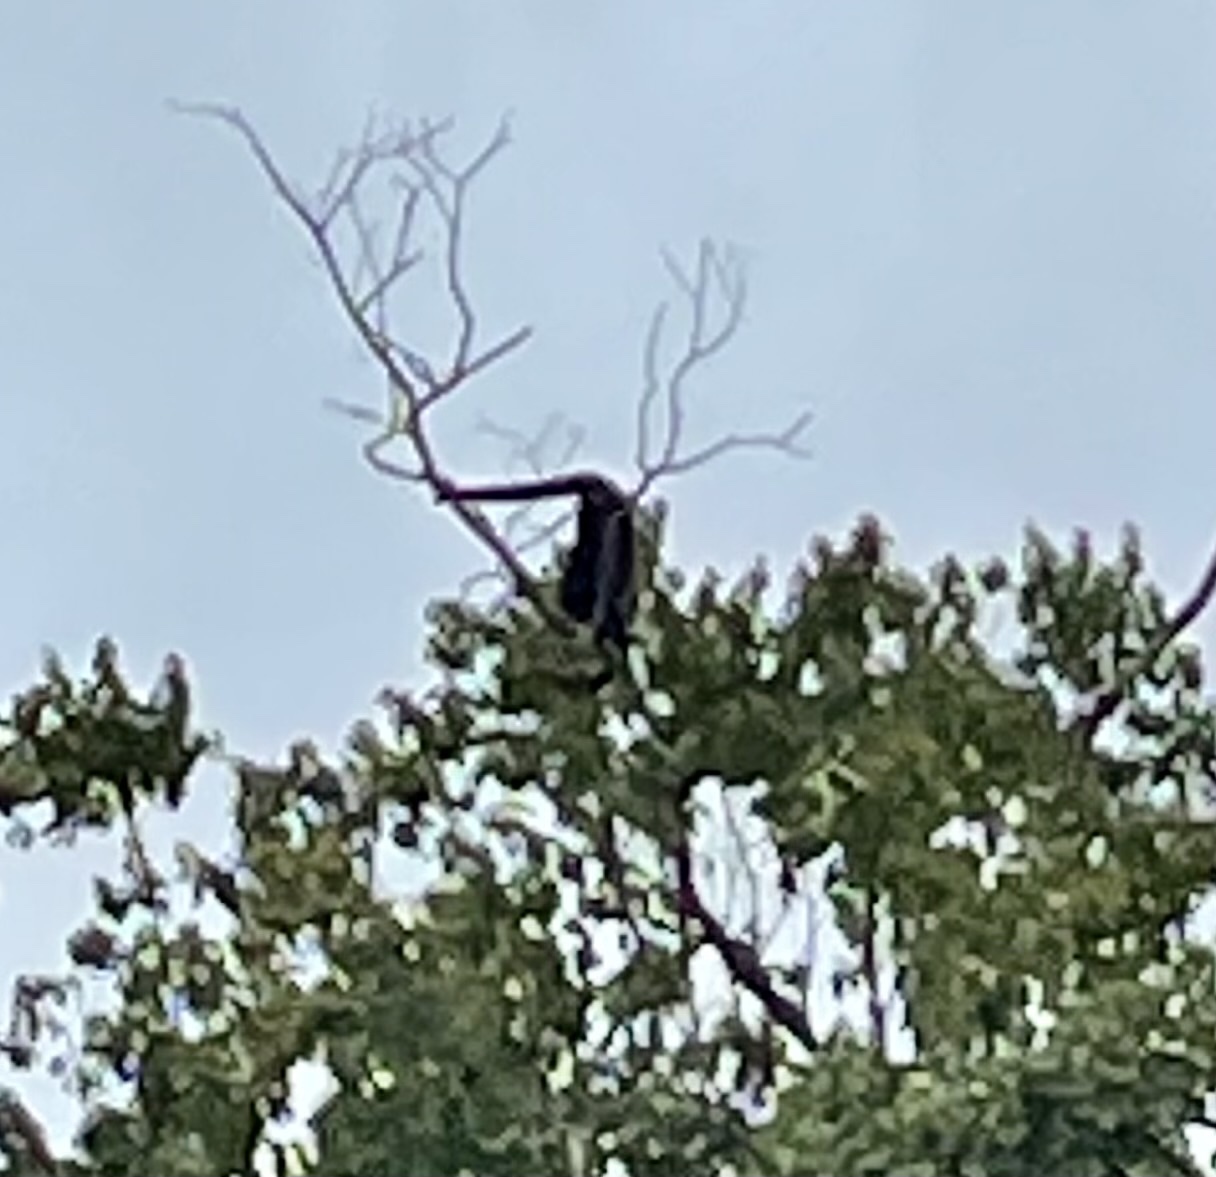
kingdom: Animalia
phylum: Chordata
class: Mammalia
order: Primates
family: Atelidae
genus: Ateles
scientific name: Ateles geoffroyi
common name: Black-handed spider monkey
